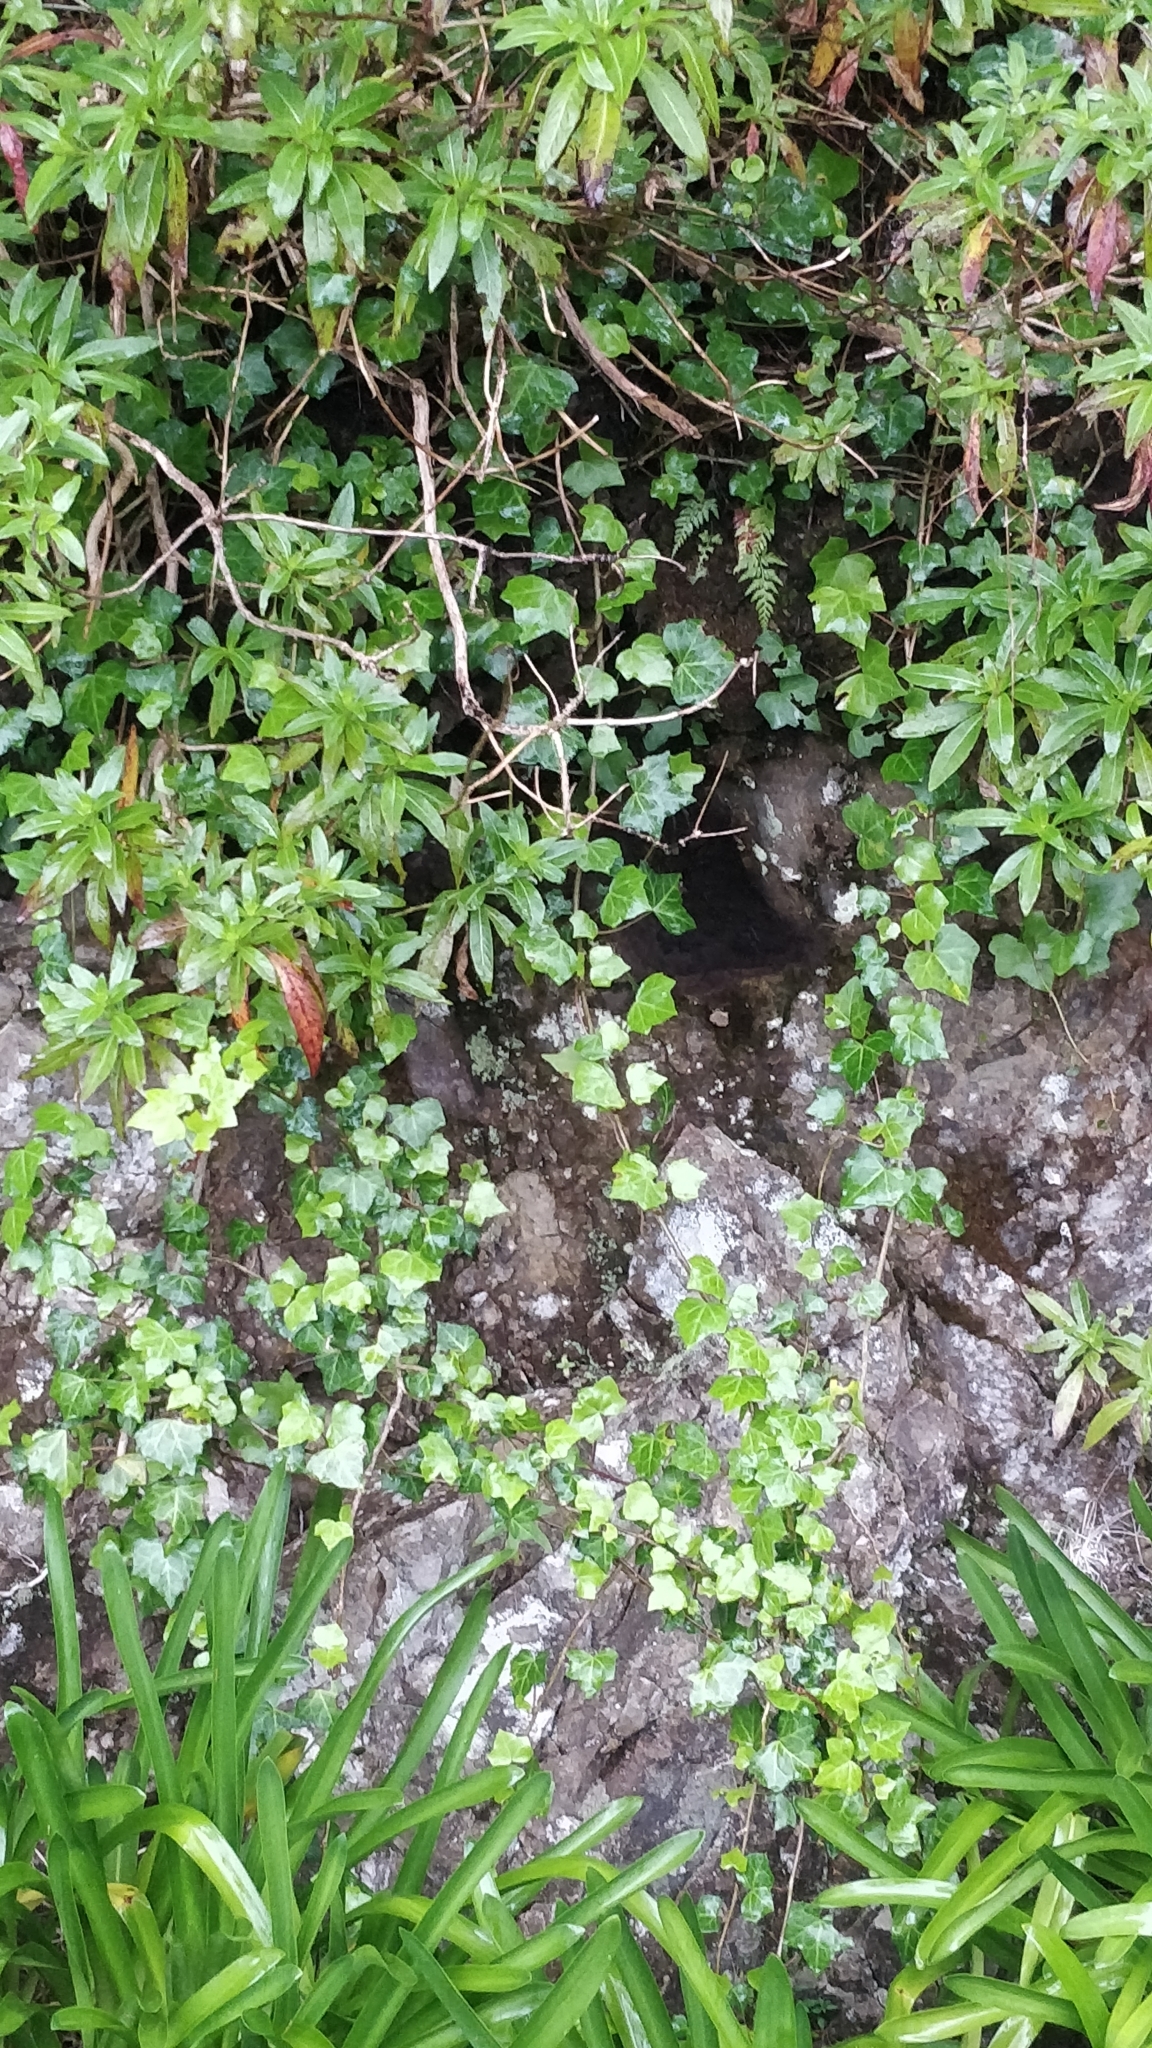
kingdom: Plantae
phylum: Tracheophyta
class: Magnoliopsida
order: Apiales
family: Araliaceae
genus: Hedera
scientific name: Hedera maderensis
